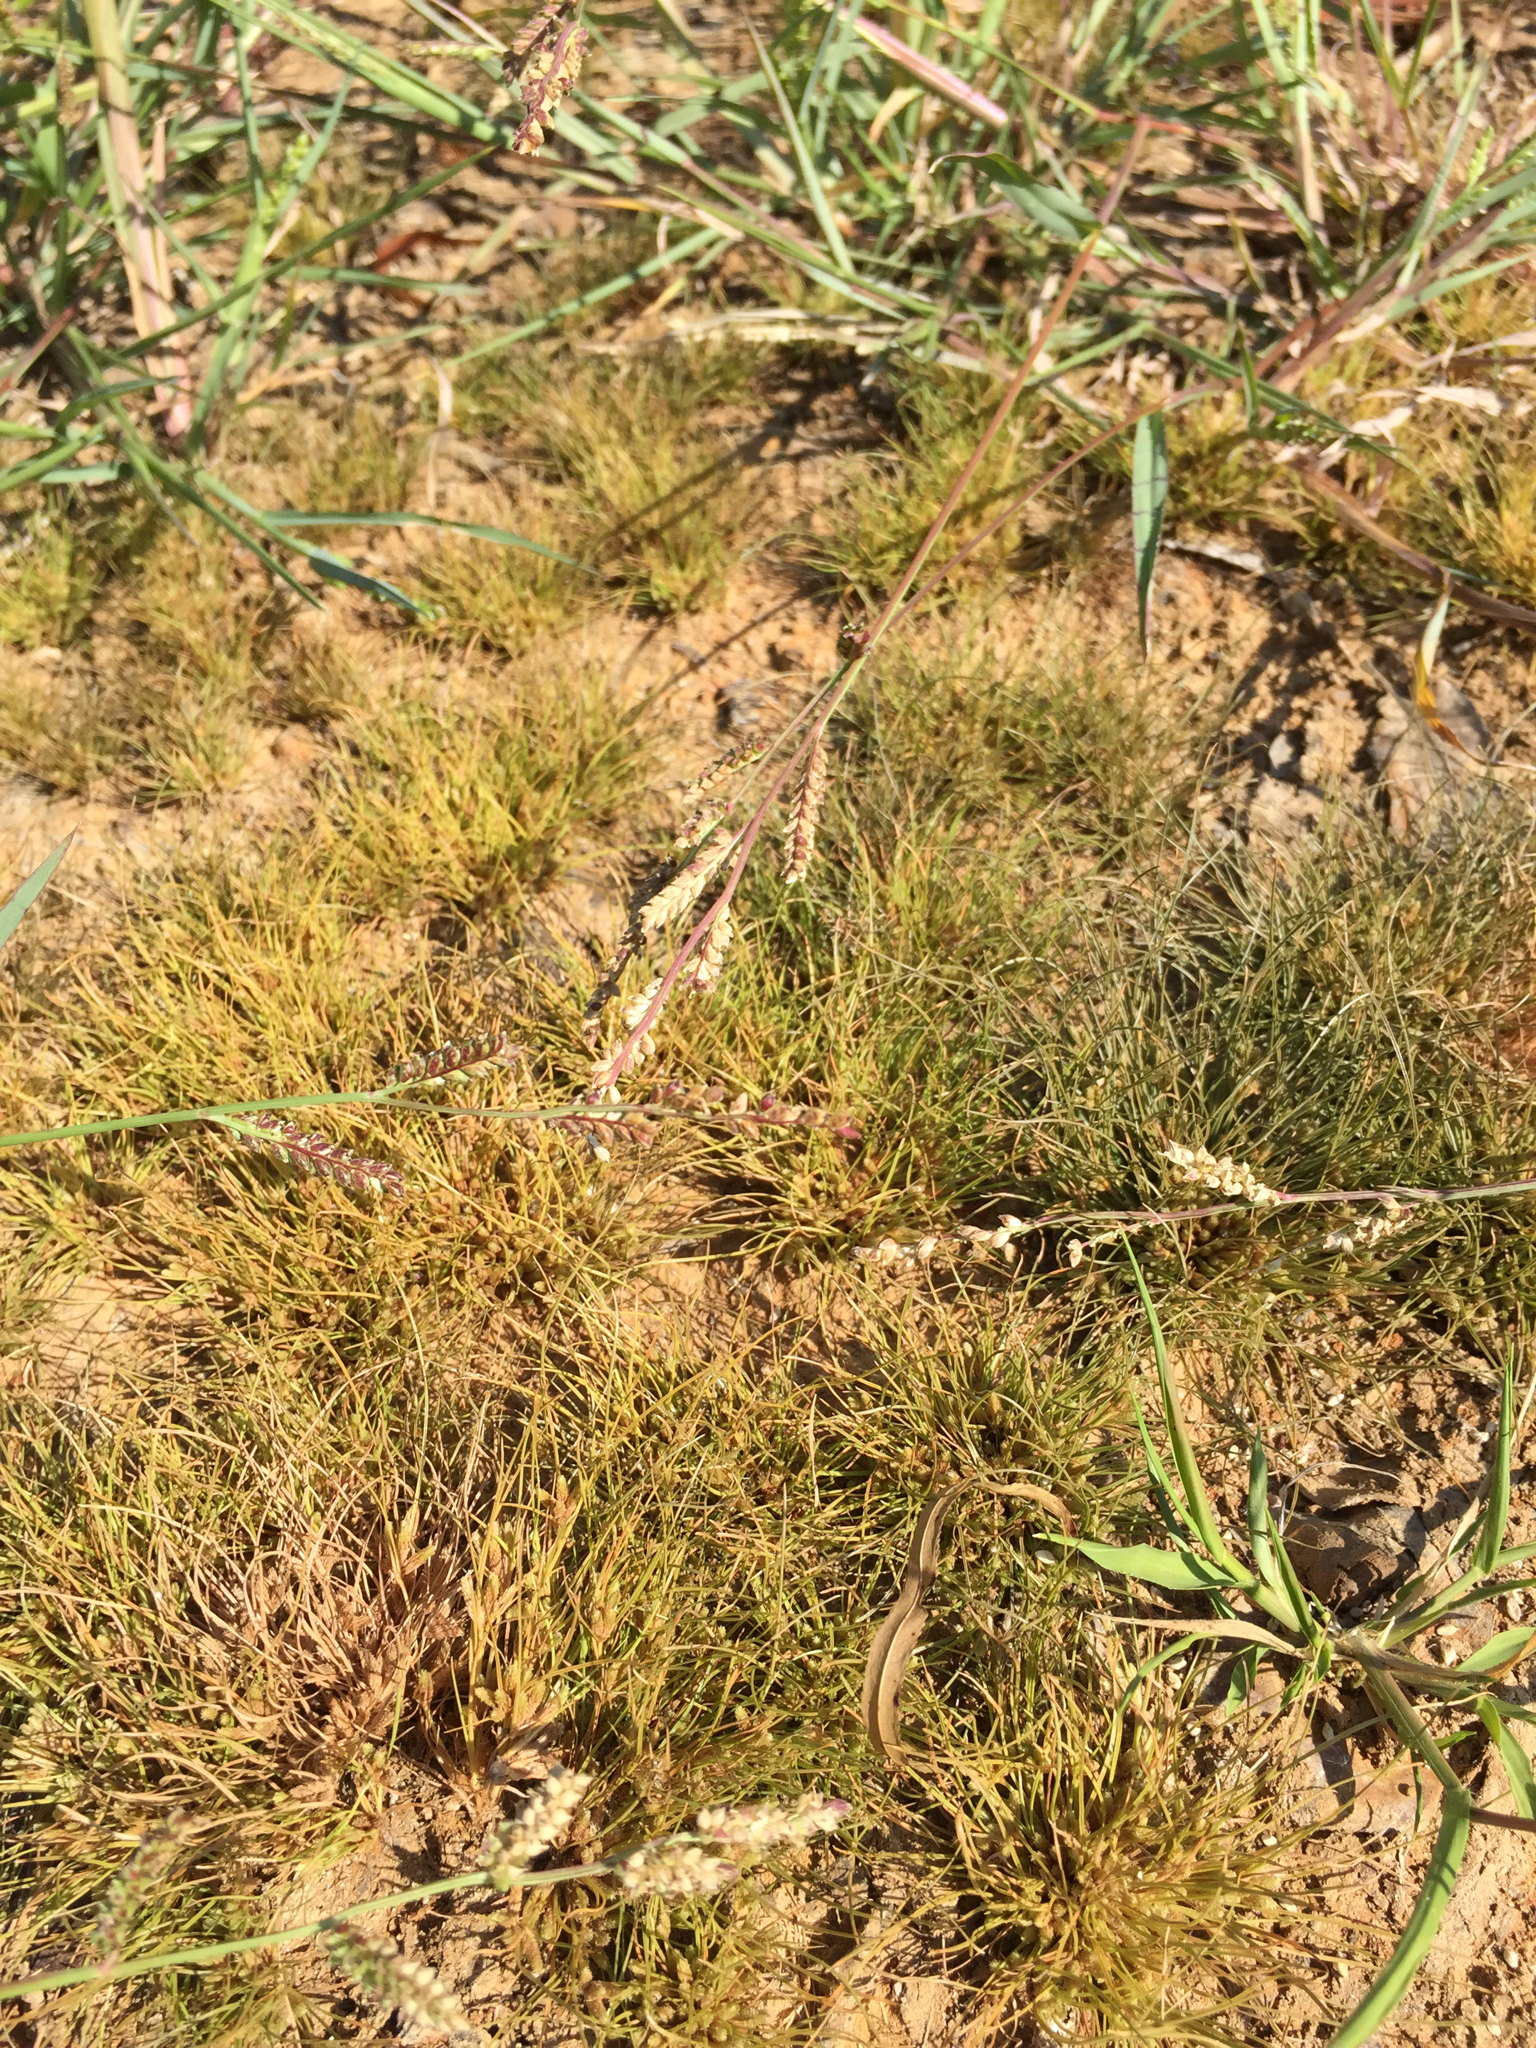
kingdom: Plantae
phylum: Tracheophyta
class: Liliopsida
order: Poales
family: Cyperaceae
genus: Fimbristylis
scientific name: Fimbristylis vahlii
